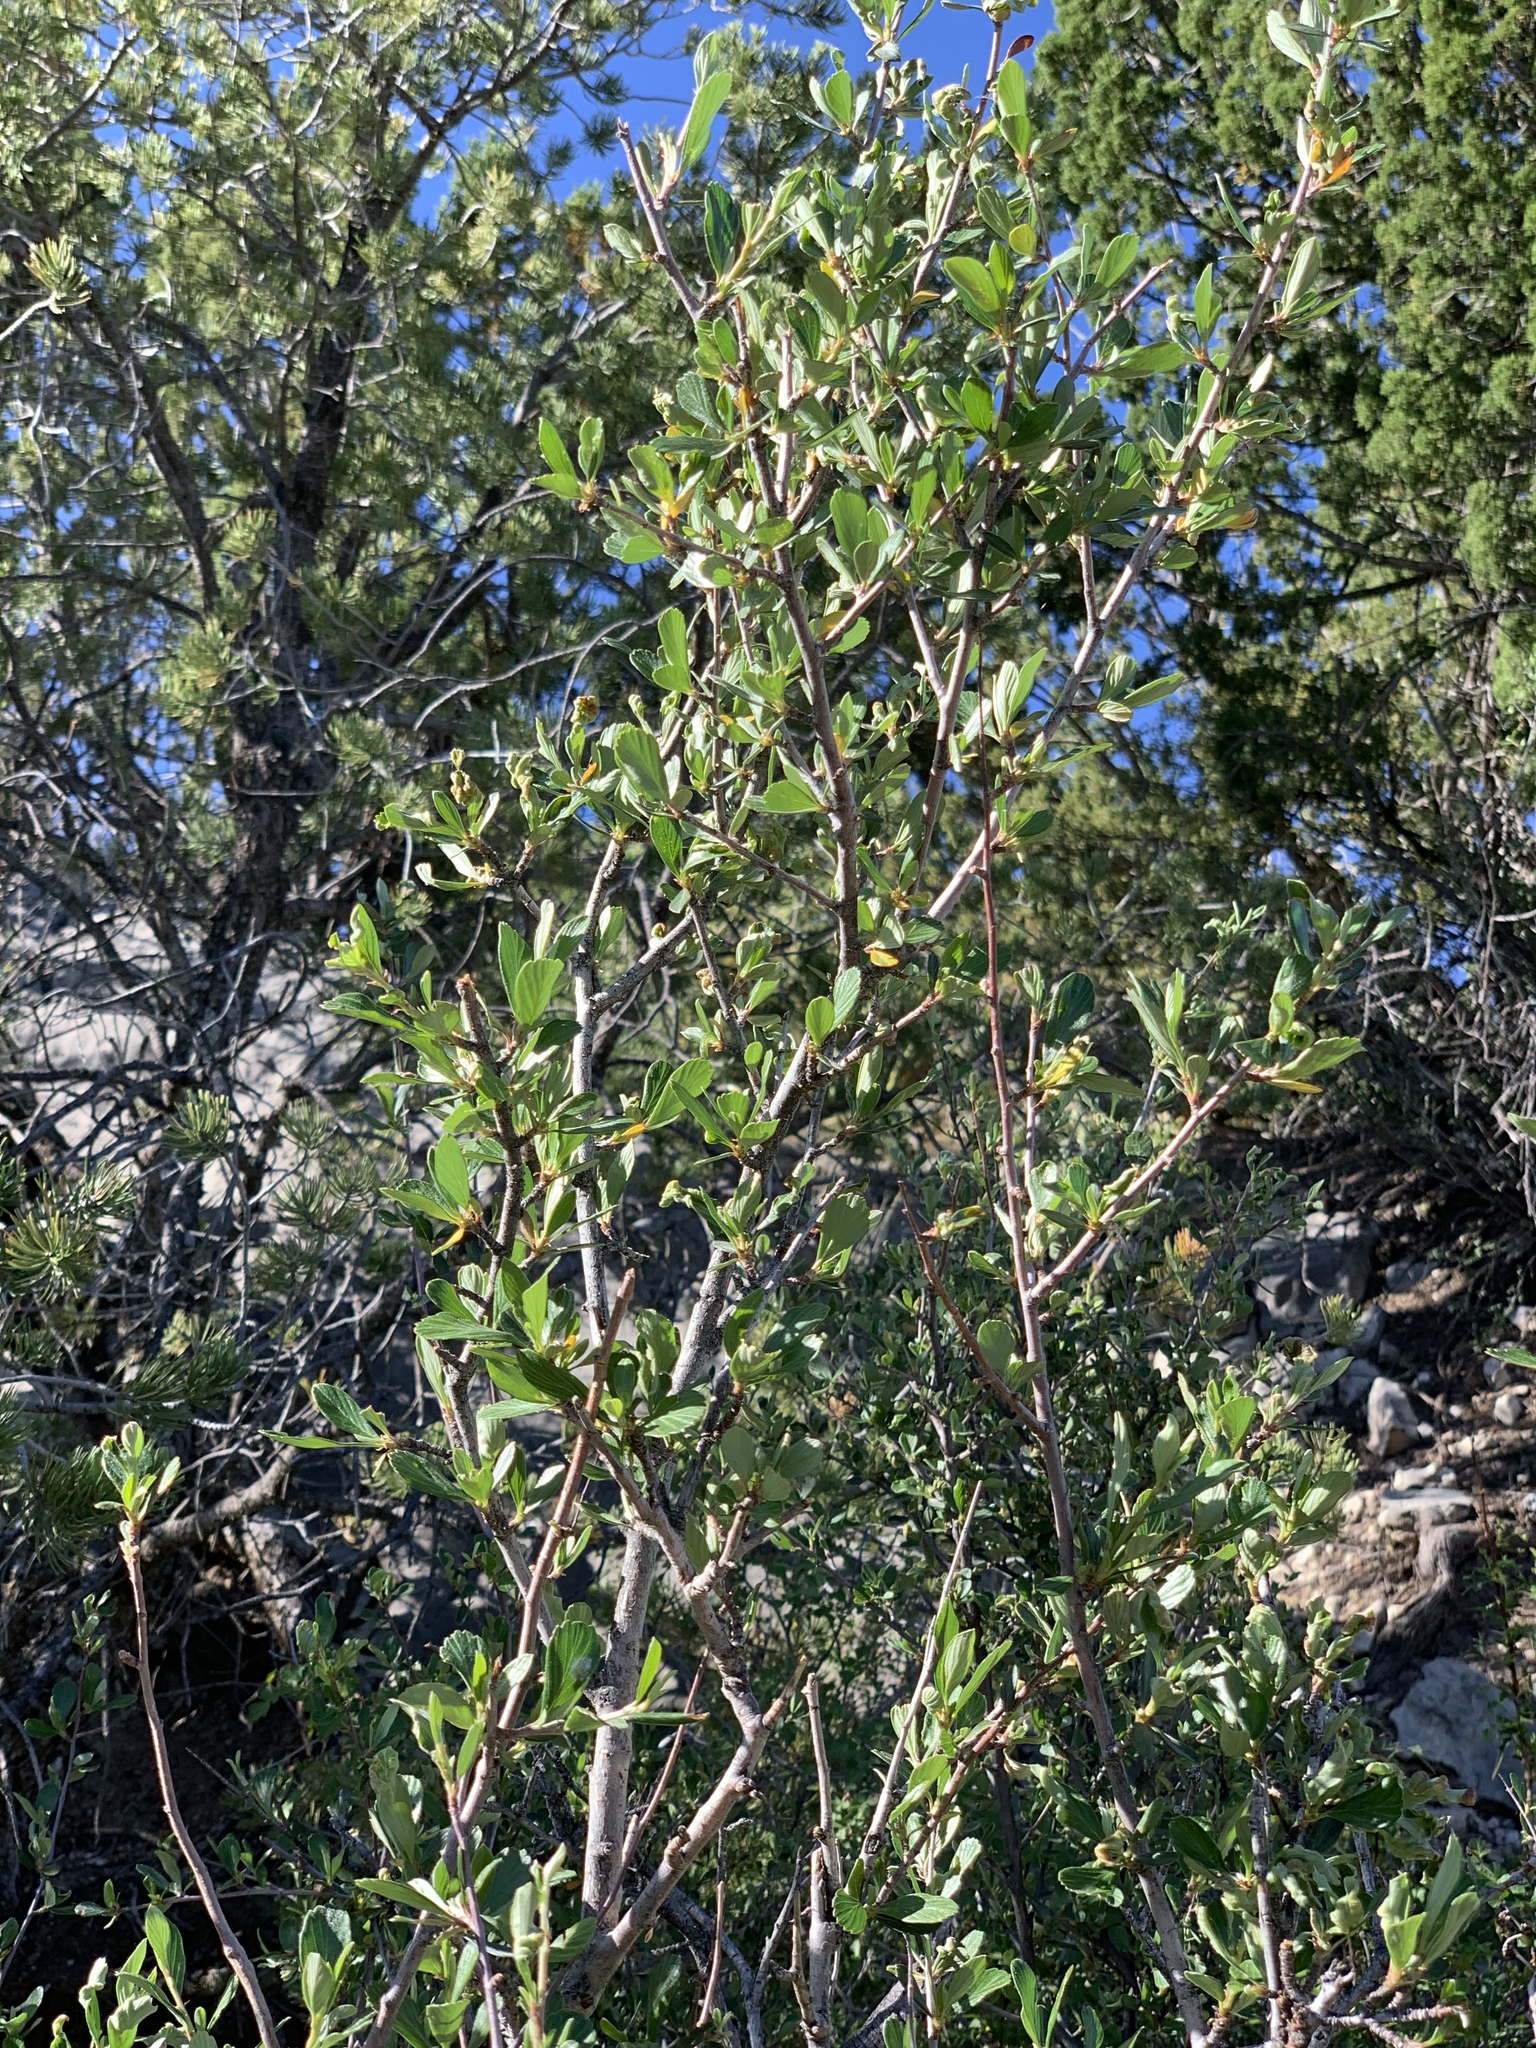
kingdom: Plantae
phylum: Tracheophyta
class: Magnoliopsida
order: Rosales
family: Rosaceae
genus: Cercocarpus
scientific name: Cercocarpus breviflorus
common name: Wright's mountain-mahogany
